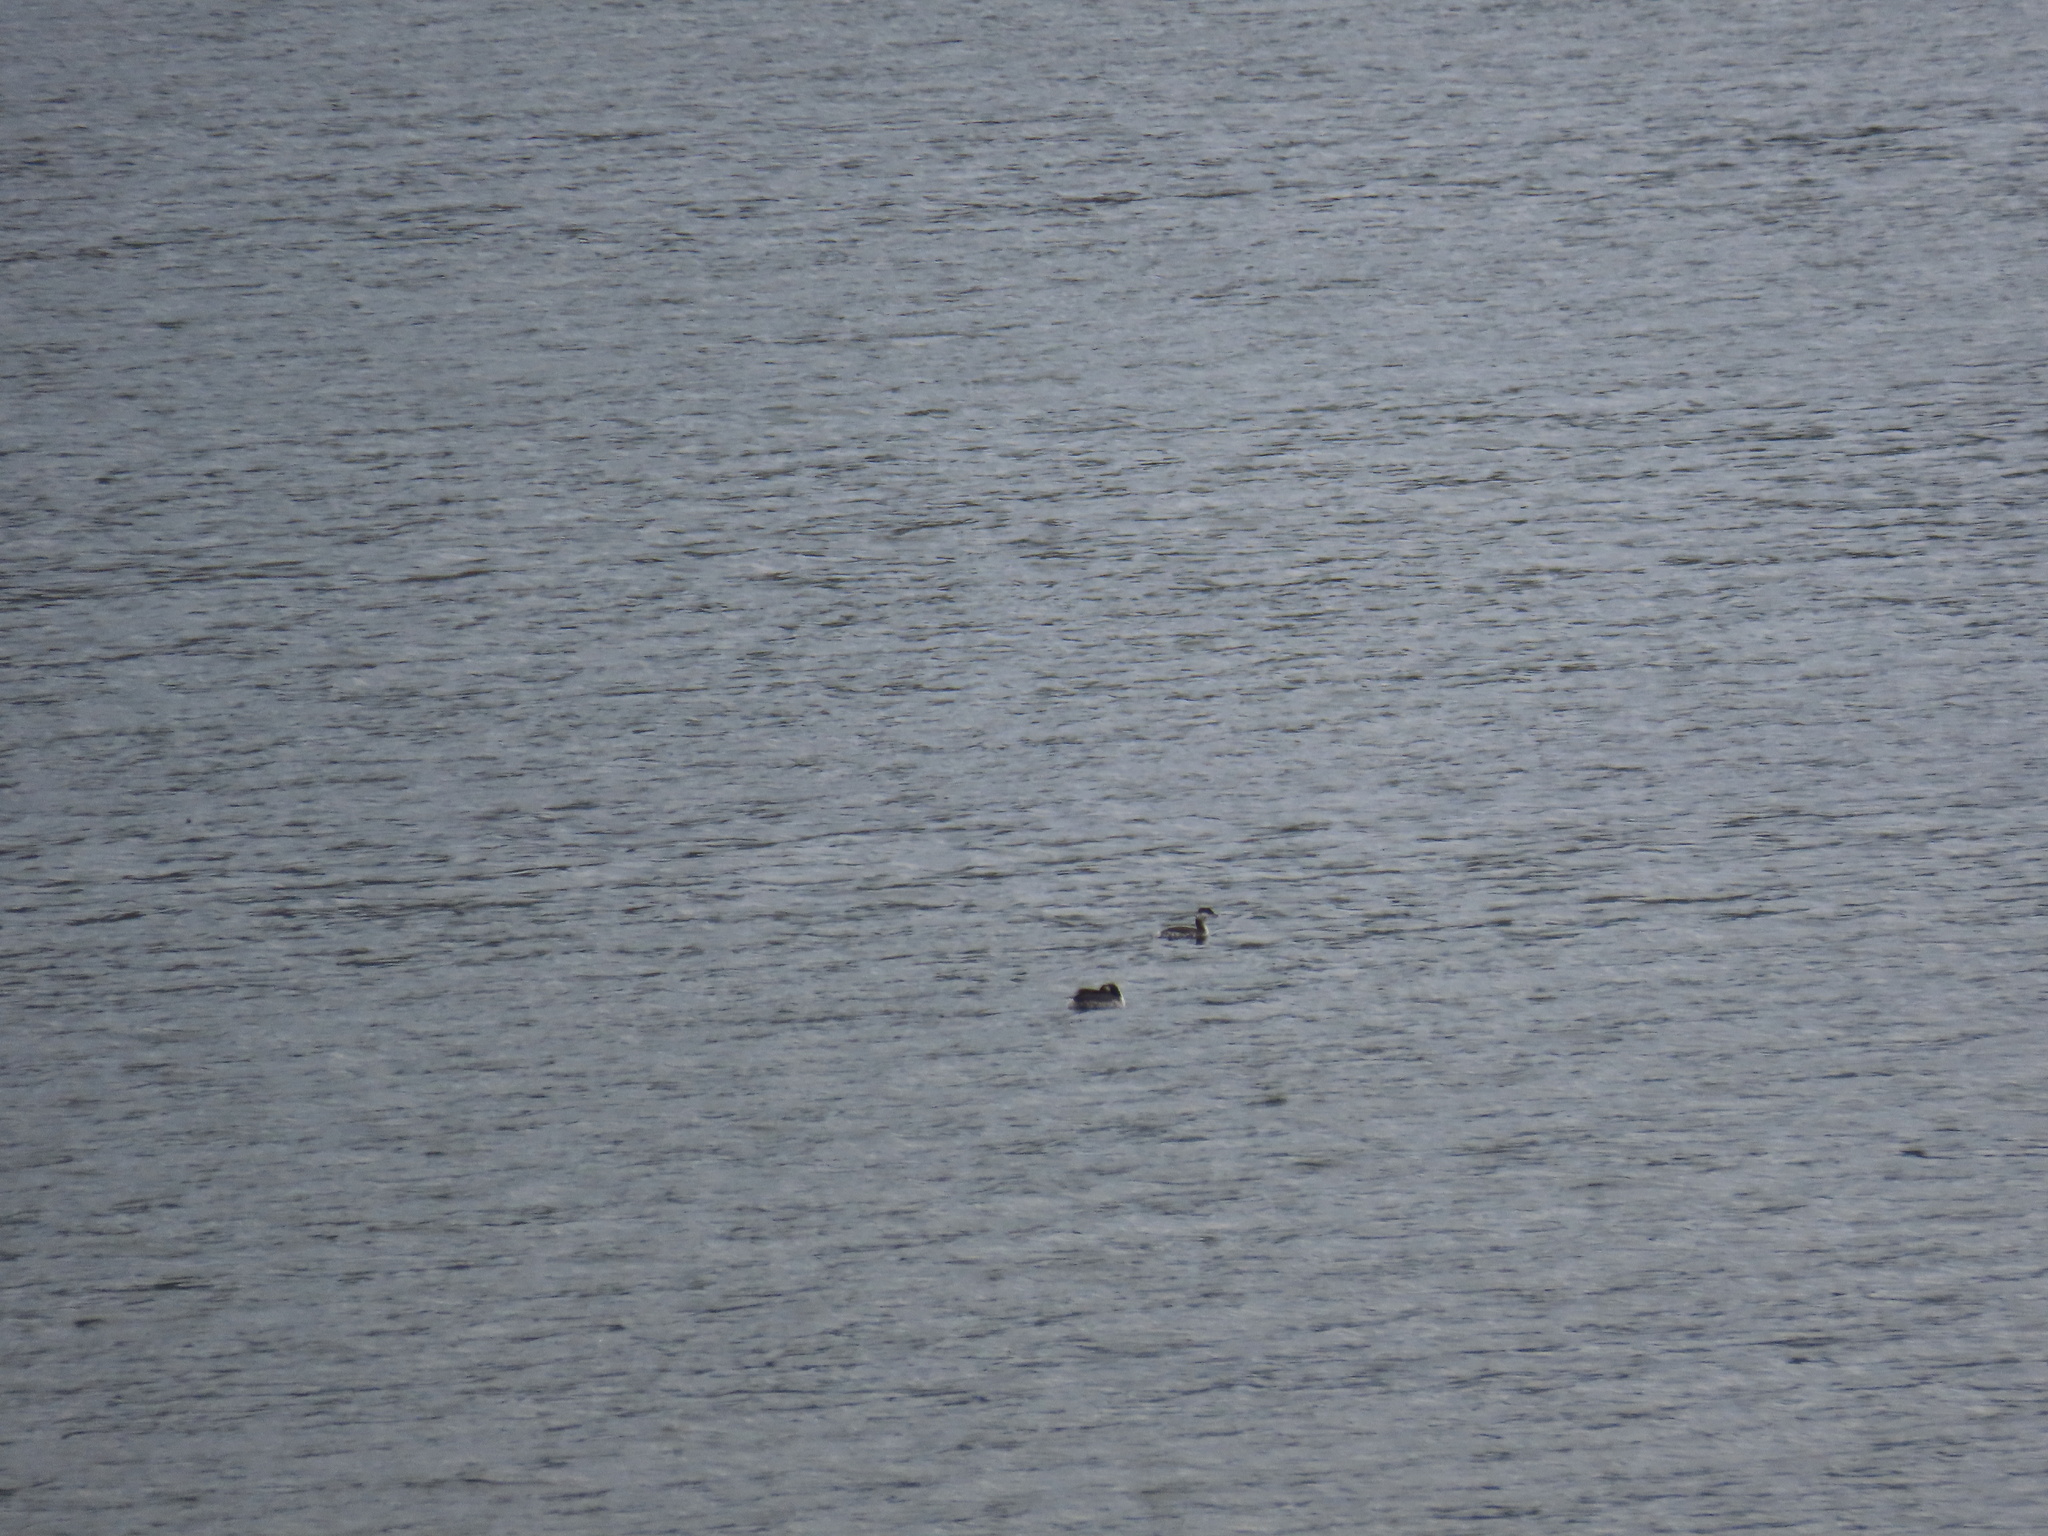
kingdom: Animalia
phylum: Chordata
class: Aves
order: Podicipediformes
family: Podicipedidae
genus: Podiceps
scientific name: Podiceps auritus
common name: Horned grebe
